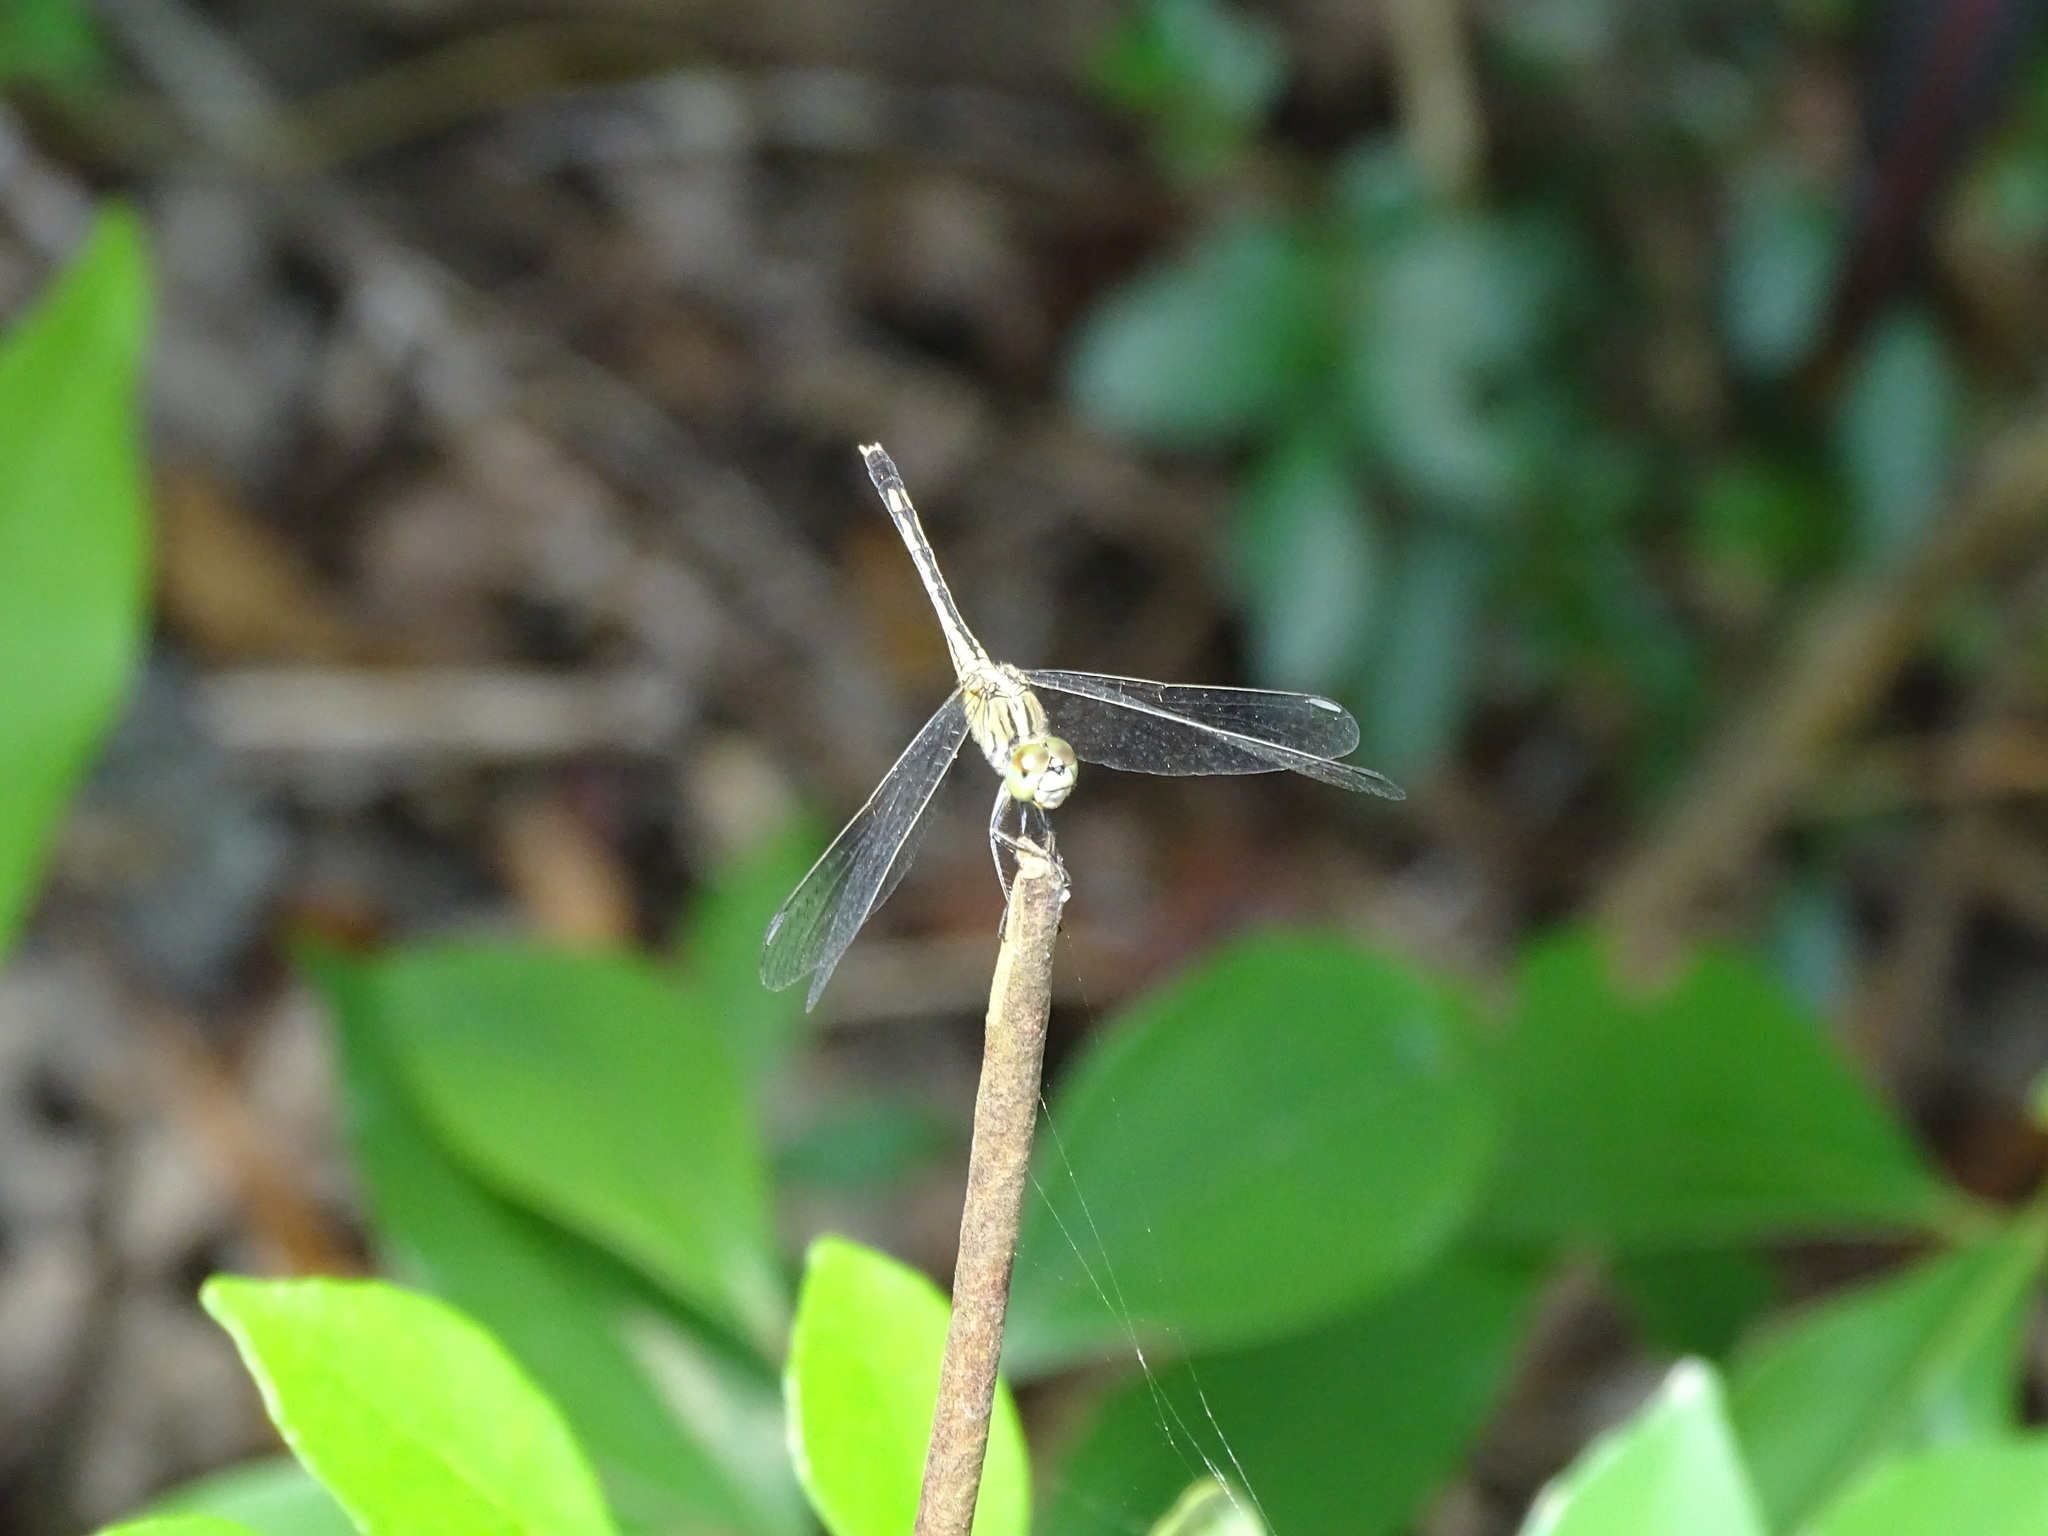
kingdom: Animalia
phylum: Arthropoda
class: Insecta
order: Odonata
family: Libellulidae
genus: Diplacodes
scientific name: Diplacodes trivialis
